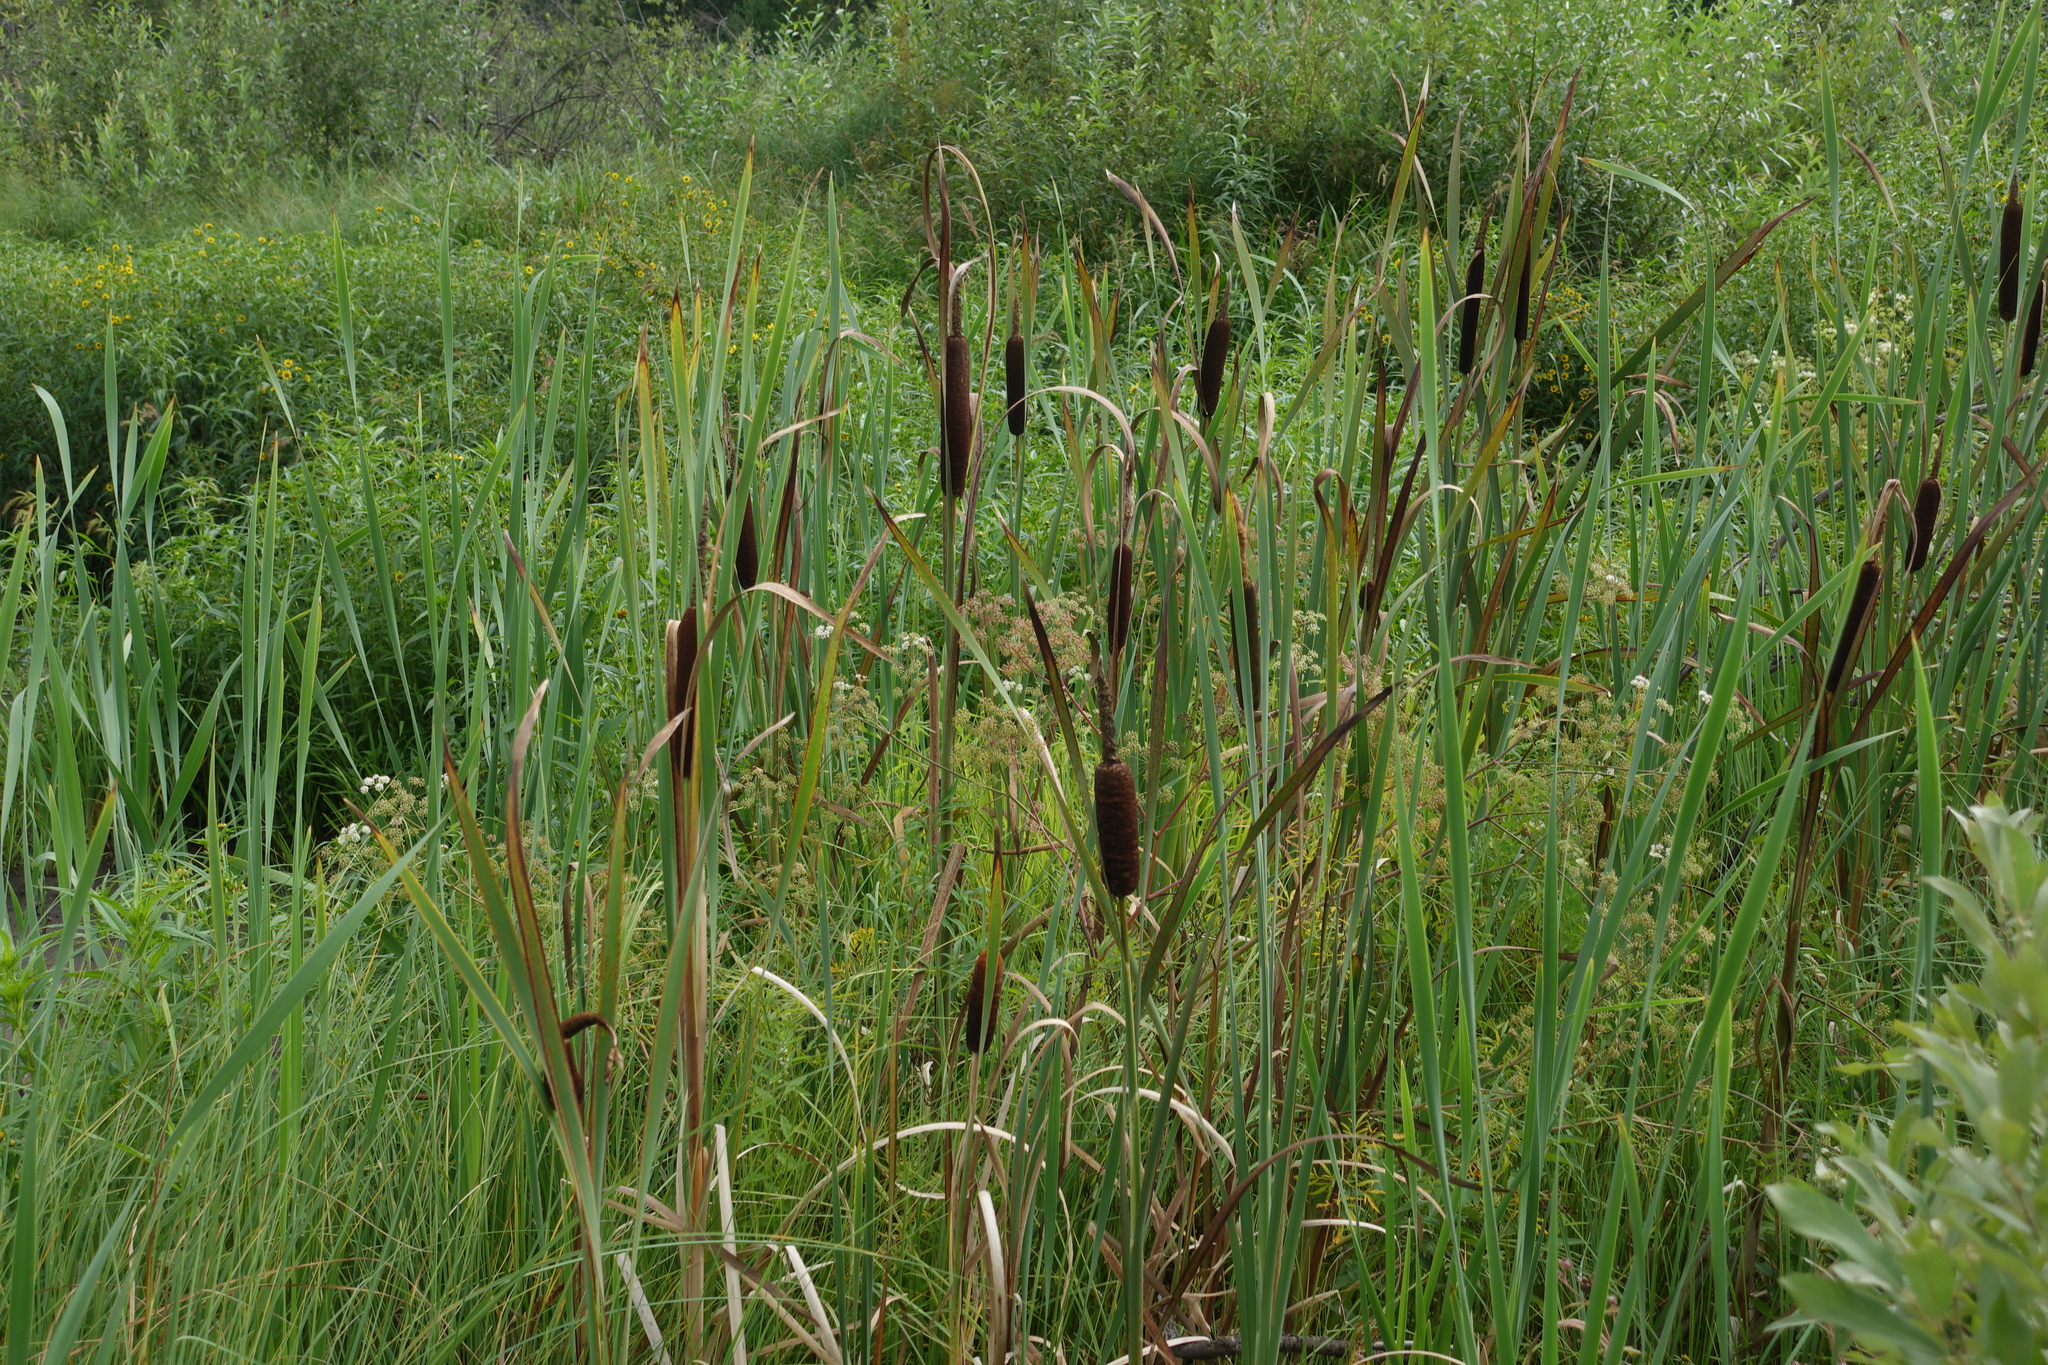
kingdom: Plantae
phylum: Tracheophyta
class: Liliopsida
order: Poales
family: Typhaceae
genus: Typha
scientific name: Typha latifolia
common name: Broadleaf cattail
